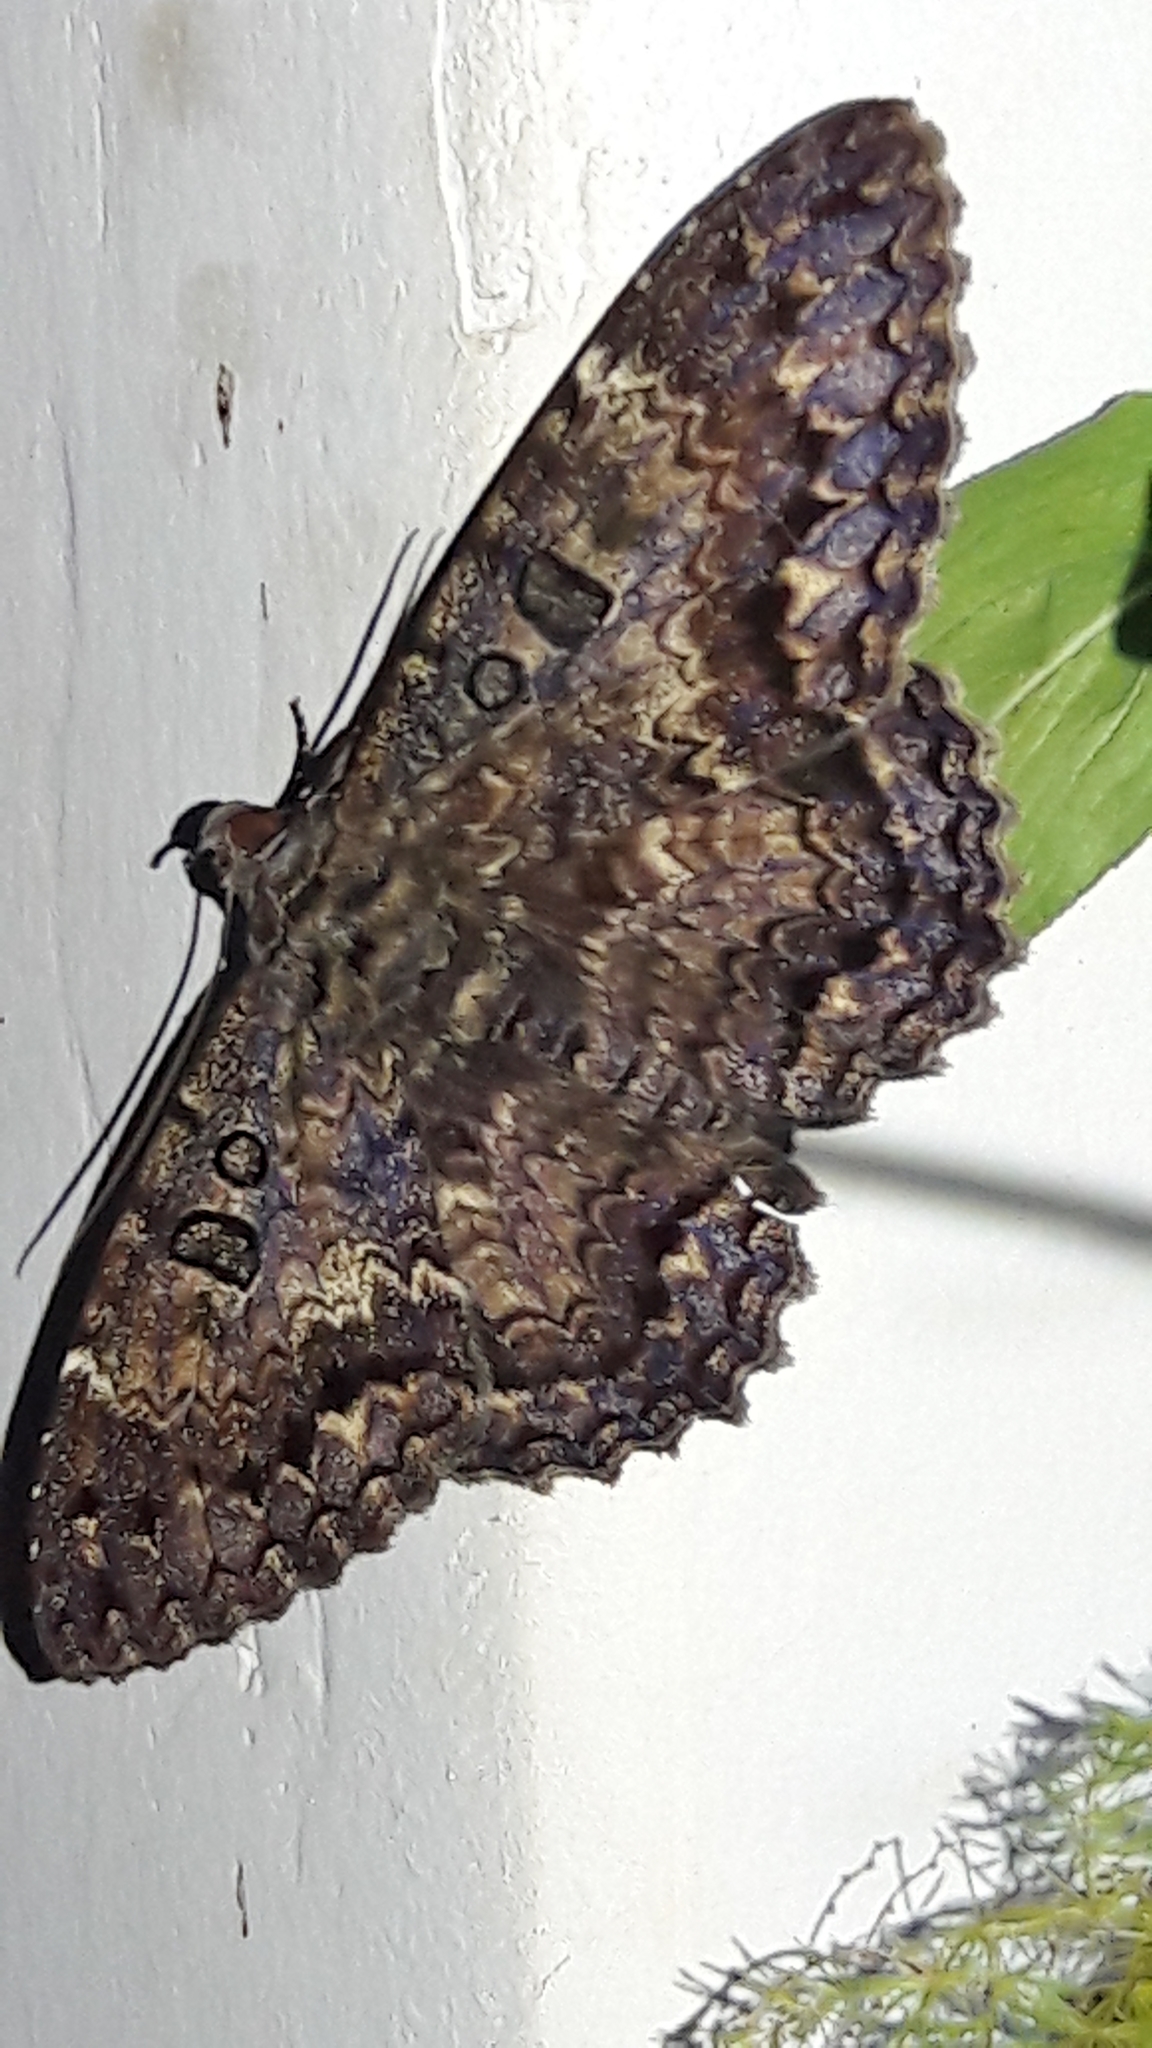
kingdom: Animalia
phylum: Arthropoda
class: Insecta
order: Lepidoptera
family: Erebidae
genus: Feigeria
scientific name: Feigeria scops
